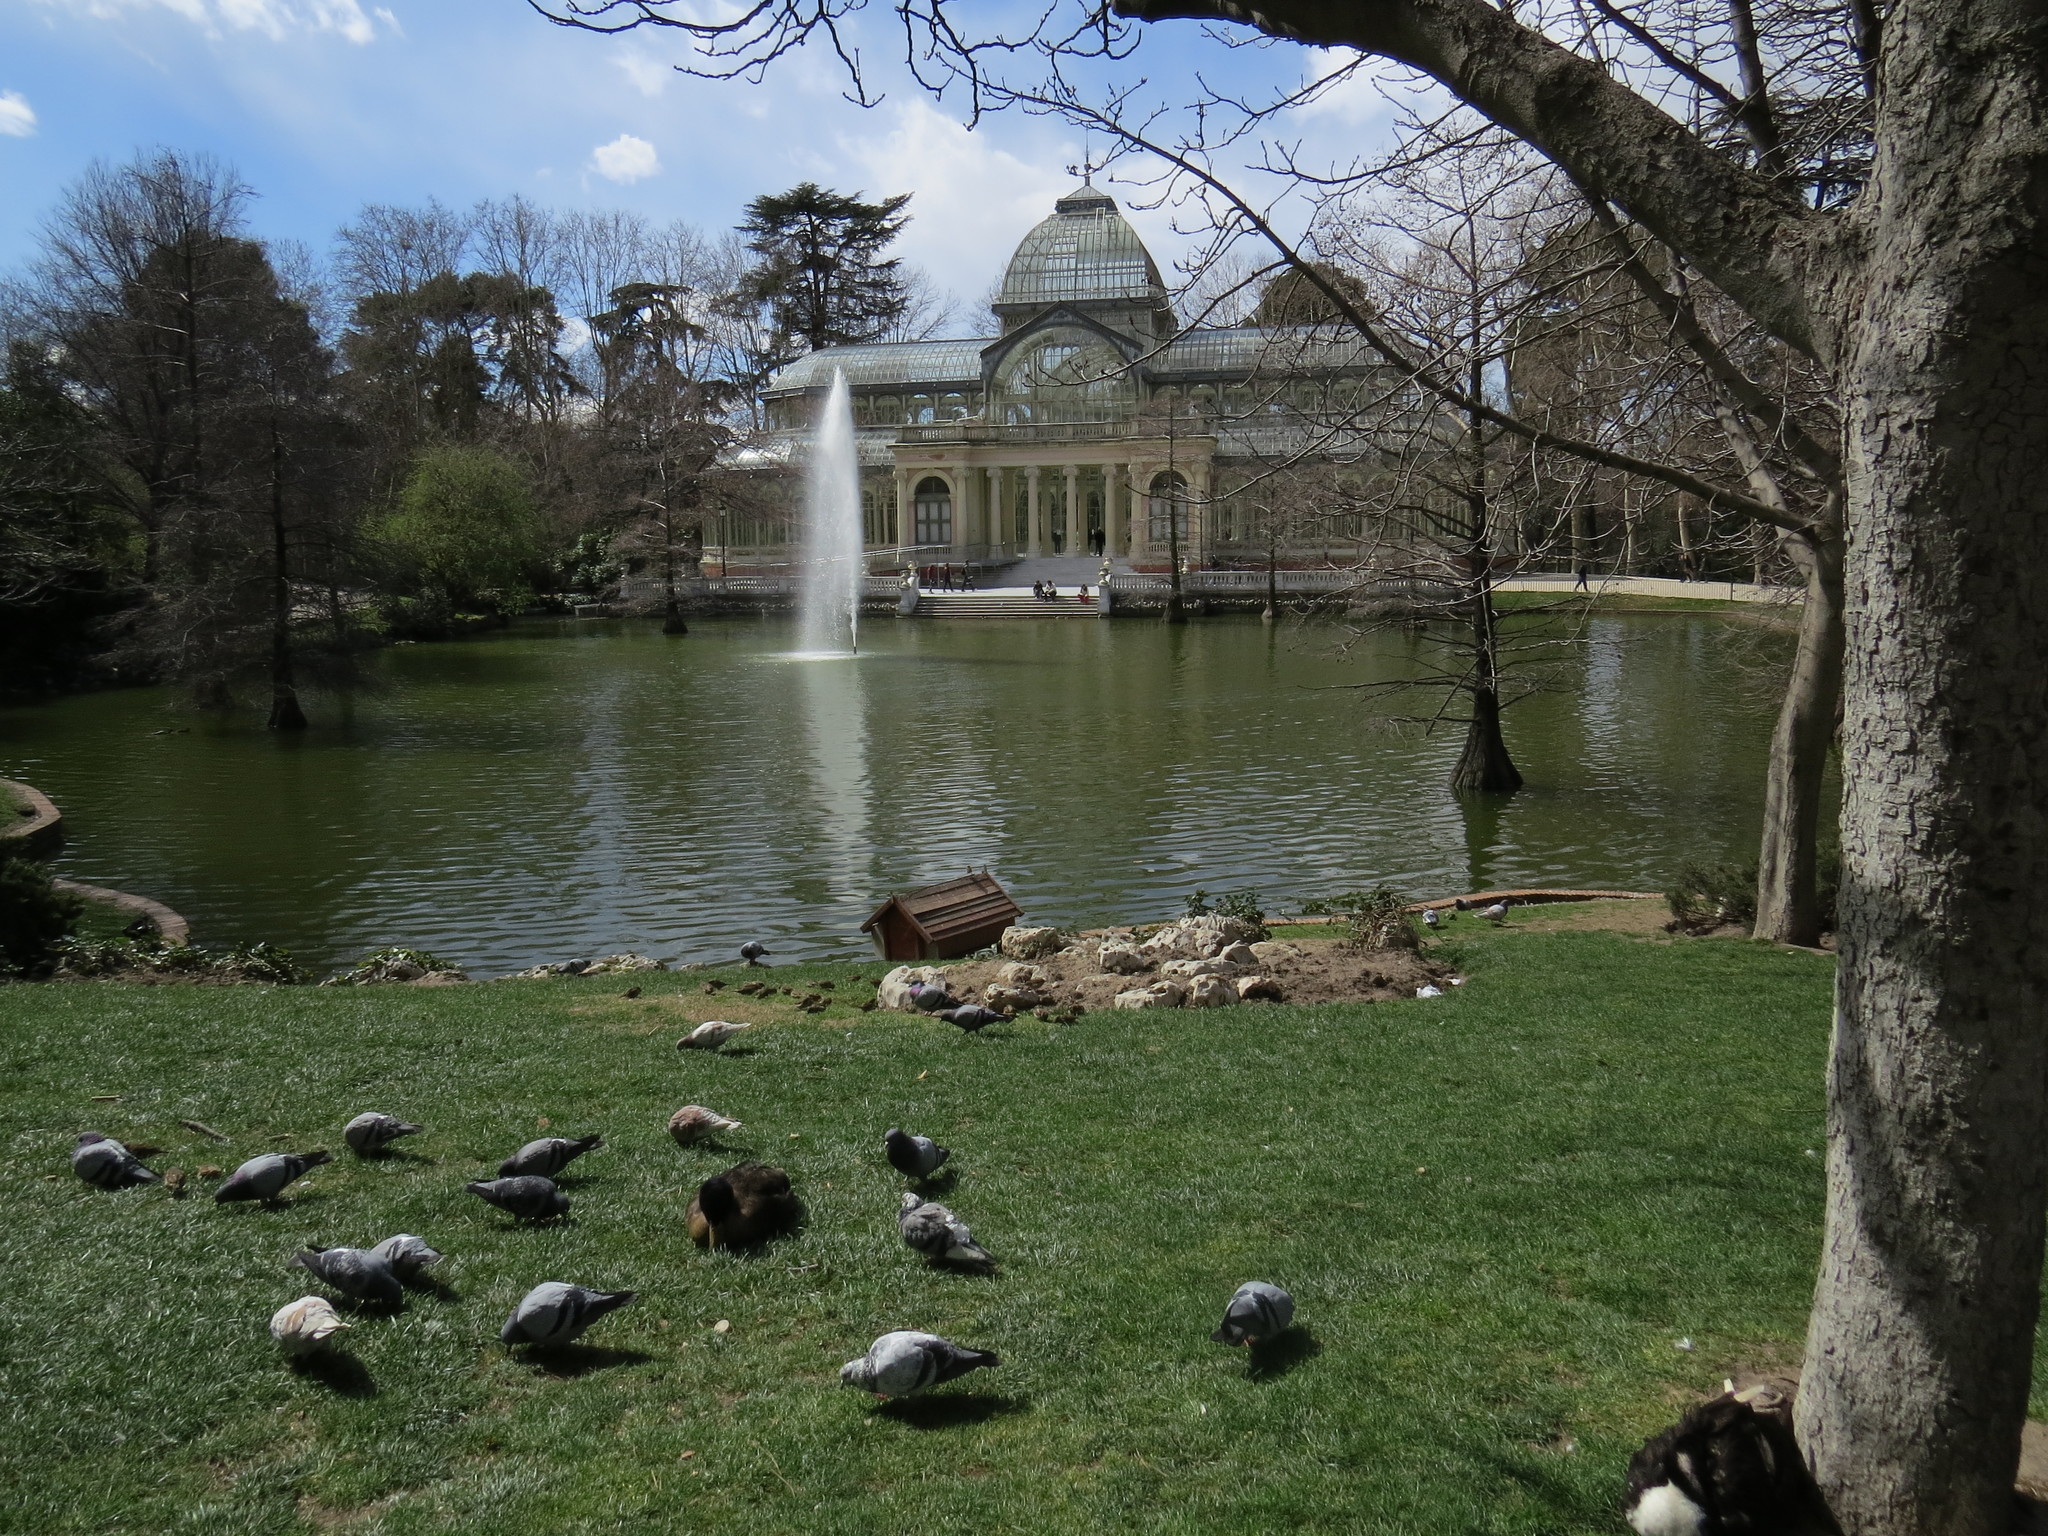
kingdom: Animalia
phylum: Chordata
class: Aves
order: Columbiformes
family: Columbidae
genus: Columba
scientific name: Columba livia
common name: Rock pigeon
